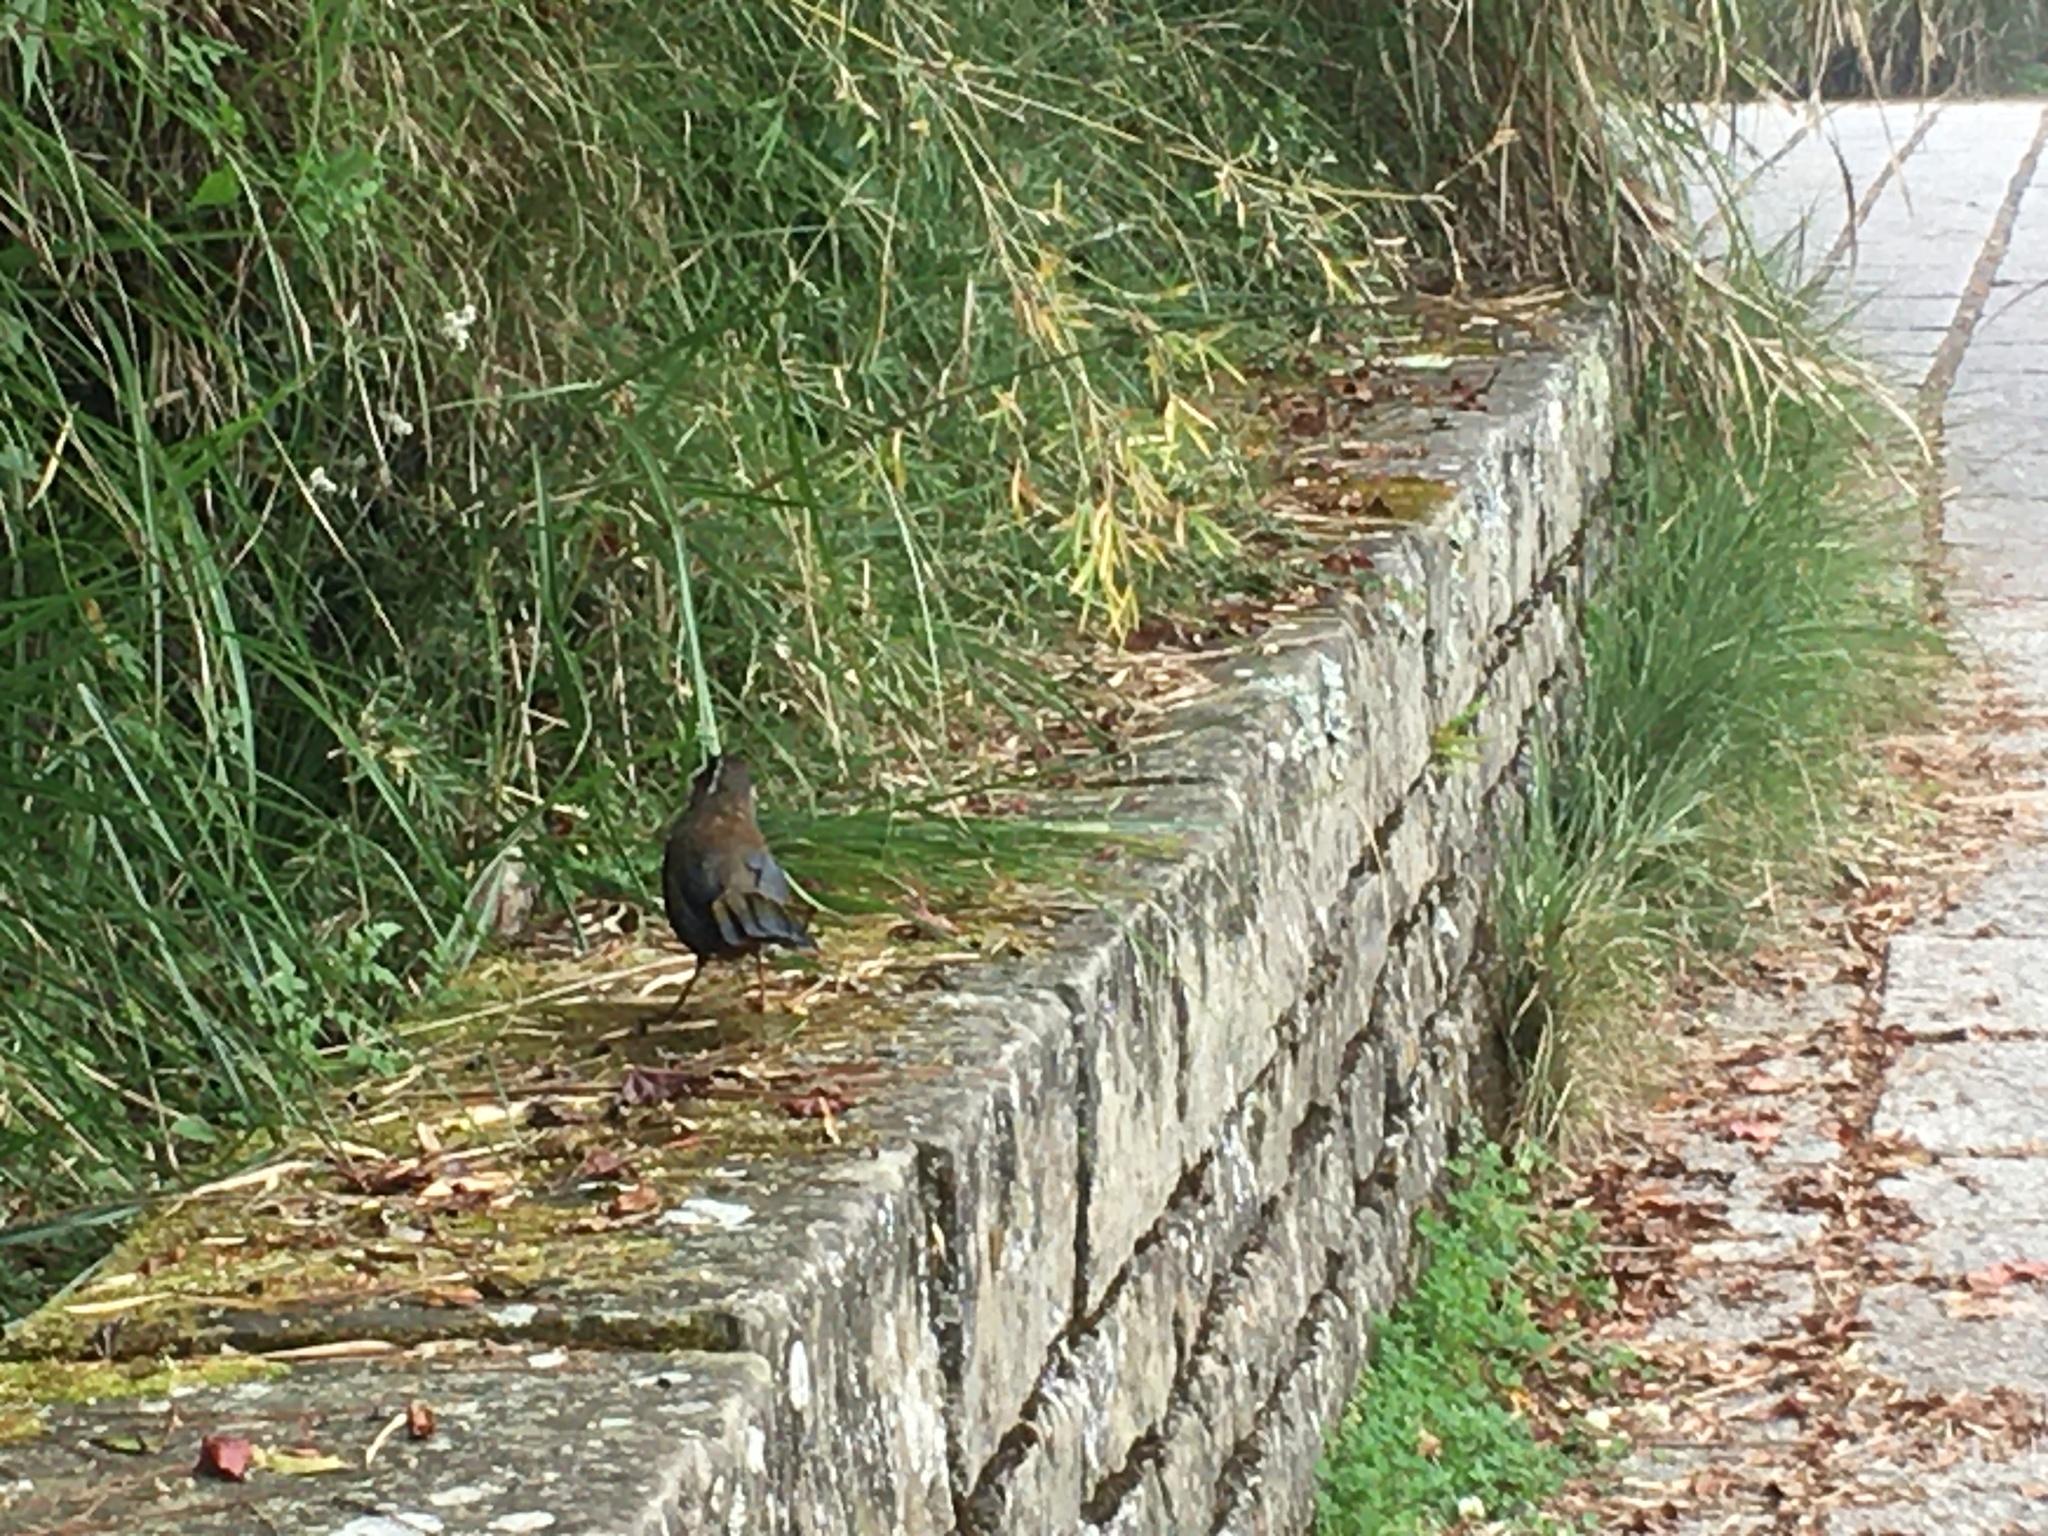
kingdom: Animalia
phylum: Chordata
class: Aves
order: Passeriformes
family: Leiothrichidae
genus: Trochalopteron
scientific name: Trochalopteron morrisonianum
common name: White-whiskered laughingthrush
